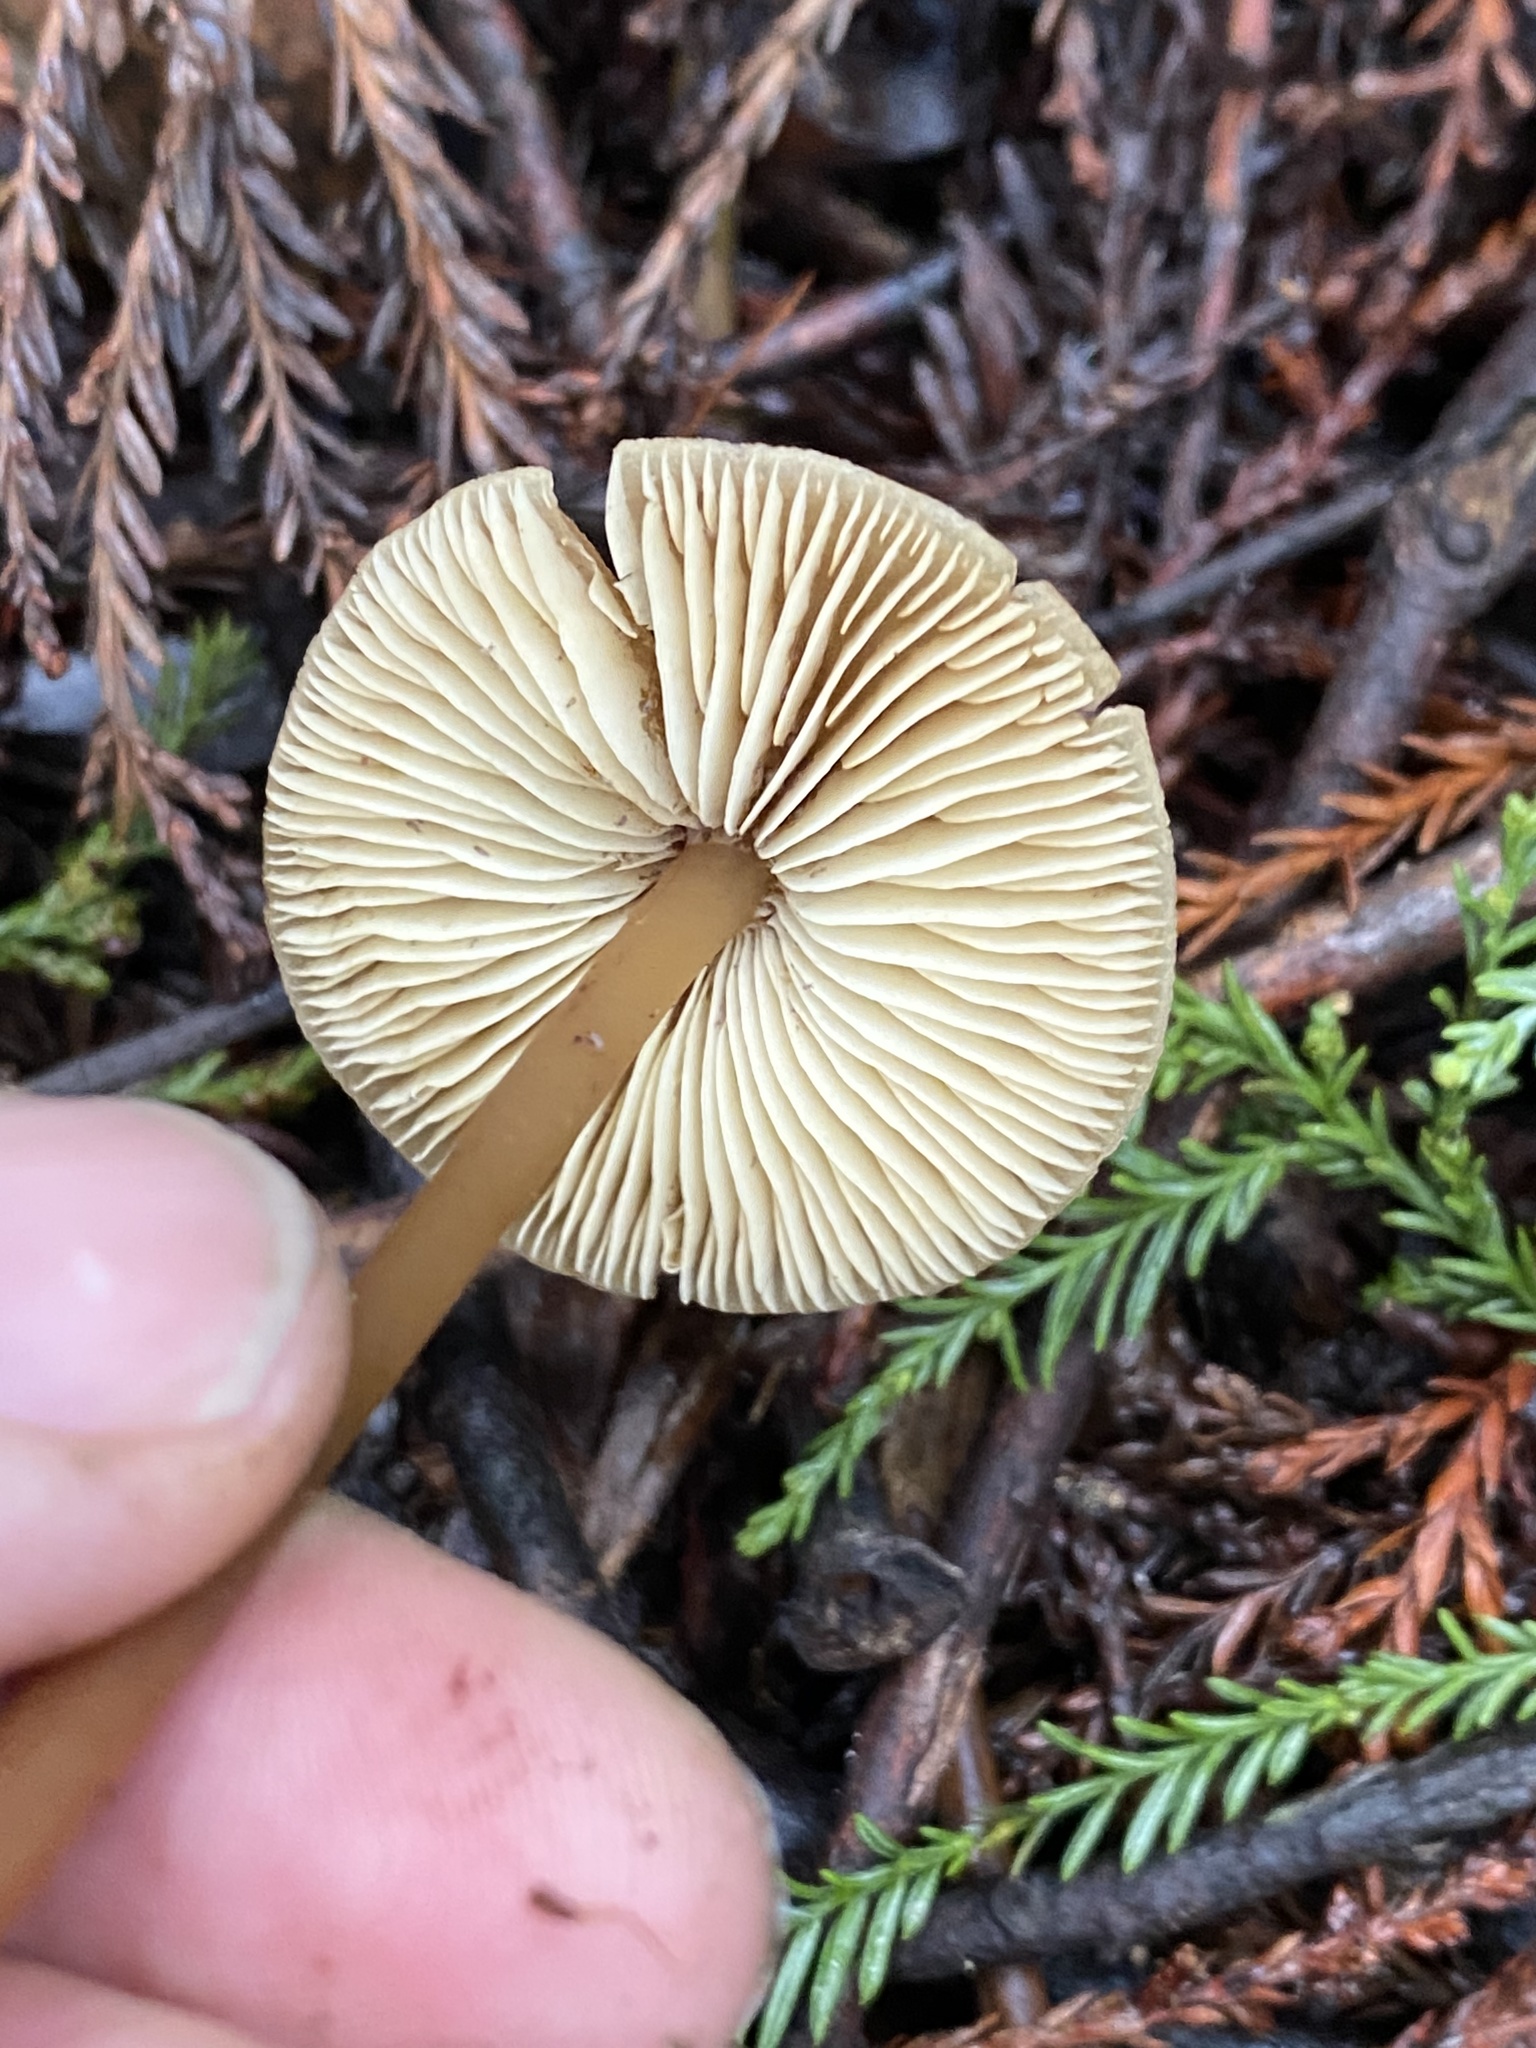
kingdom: Fungi
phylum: Basidiomycota
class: Agaricomycetes
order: Agaricales
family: Tricholomataceae
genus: Caulorhiza
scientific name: Caulorhiza umbonata
